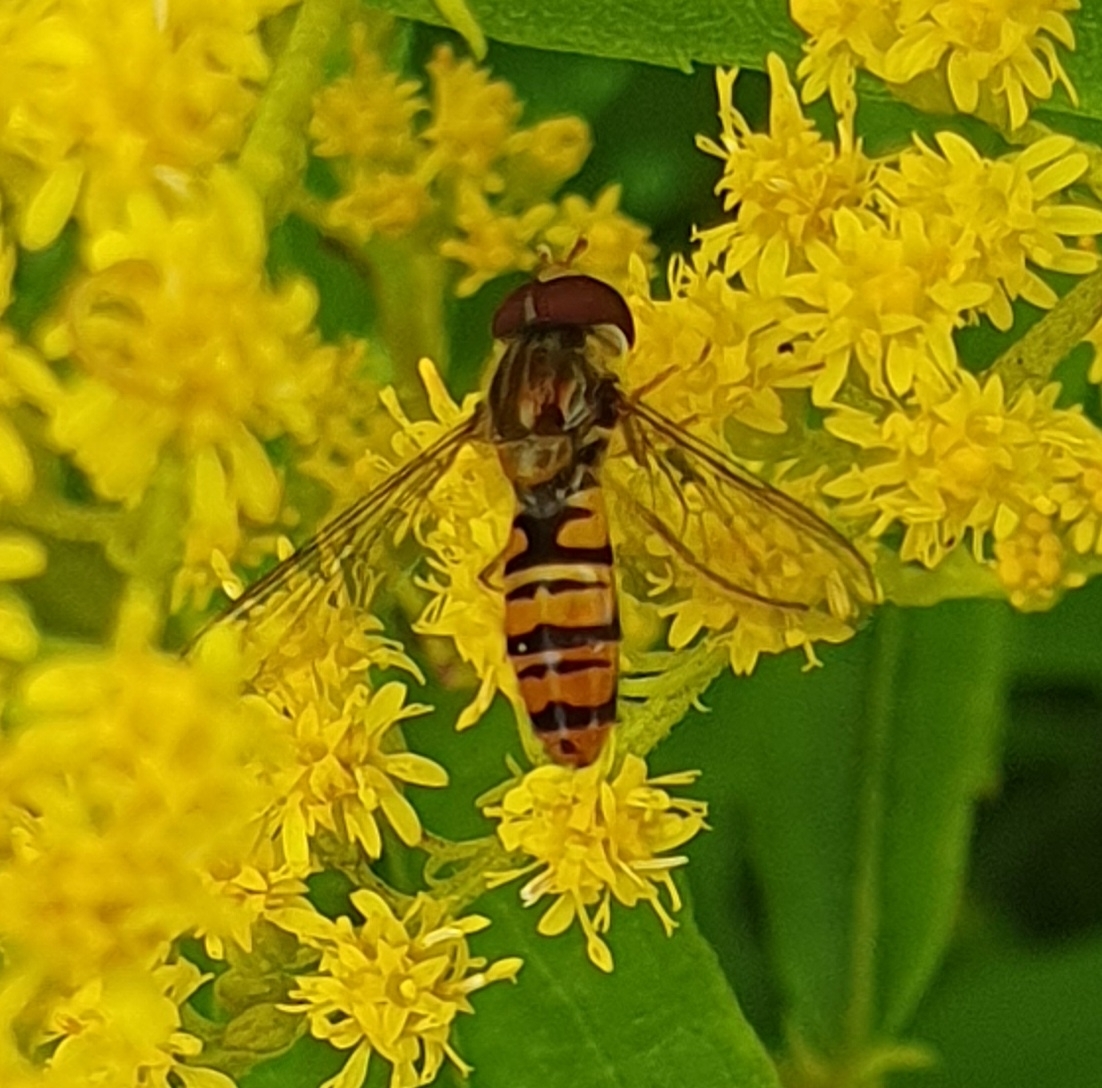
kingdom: Animalia
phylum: Arthropoda
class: Insecta
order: Diptera
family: Syrphidae
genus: Episyrphus
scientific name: Episyrphus balteatus
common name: Marmalade hoverfly
